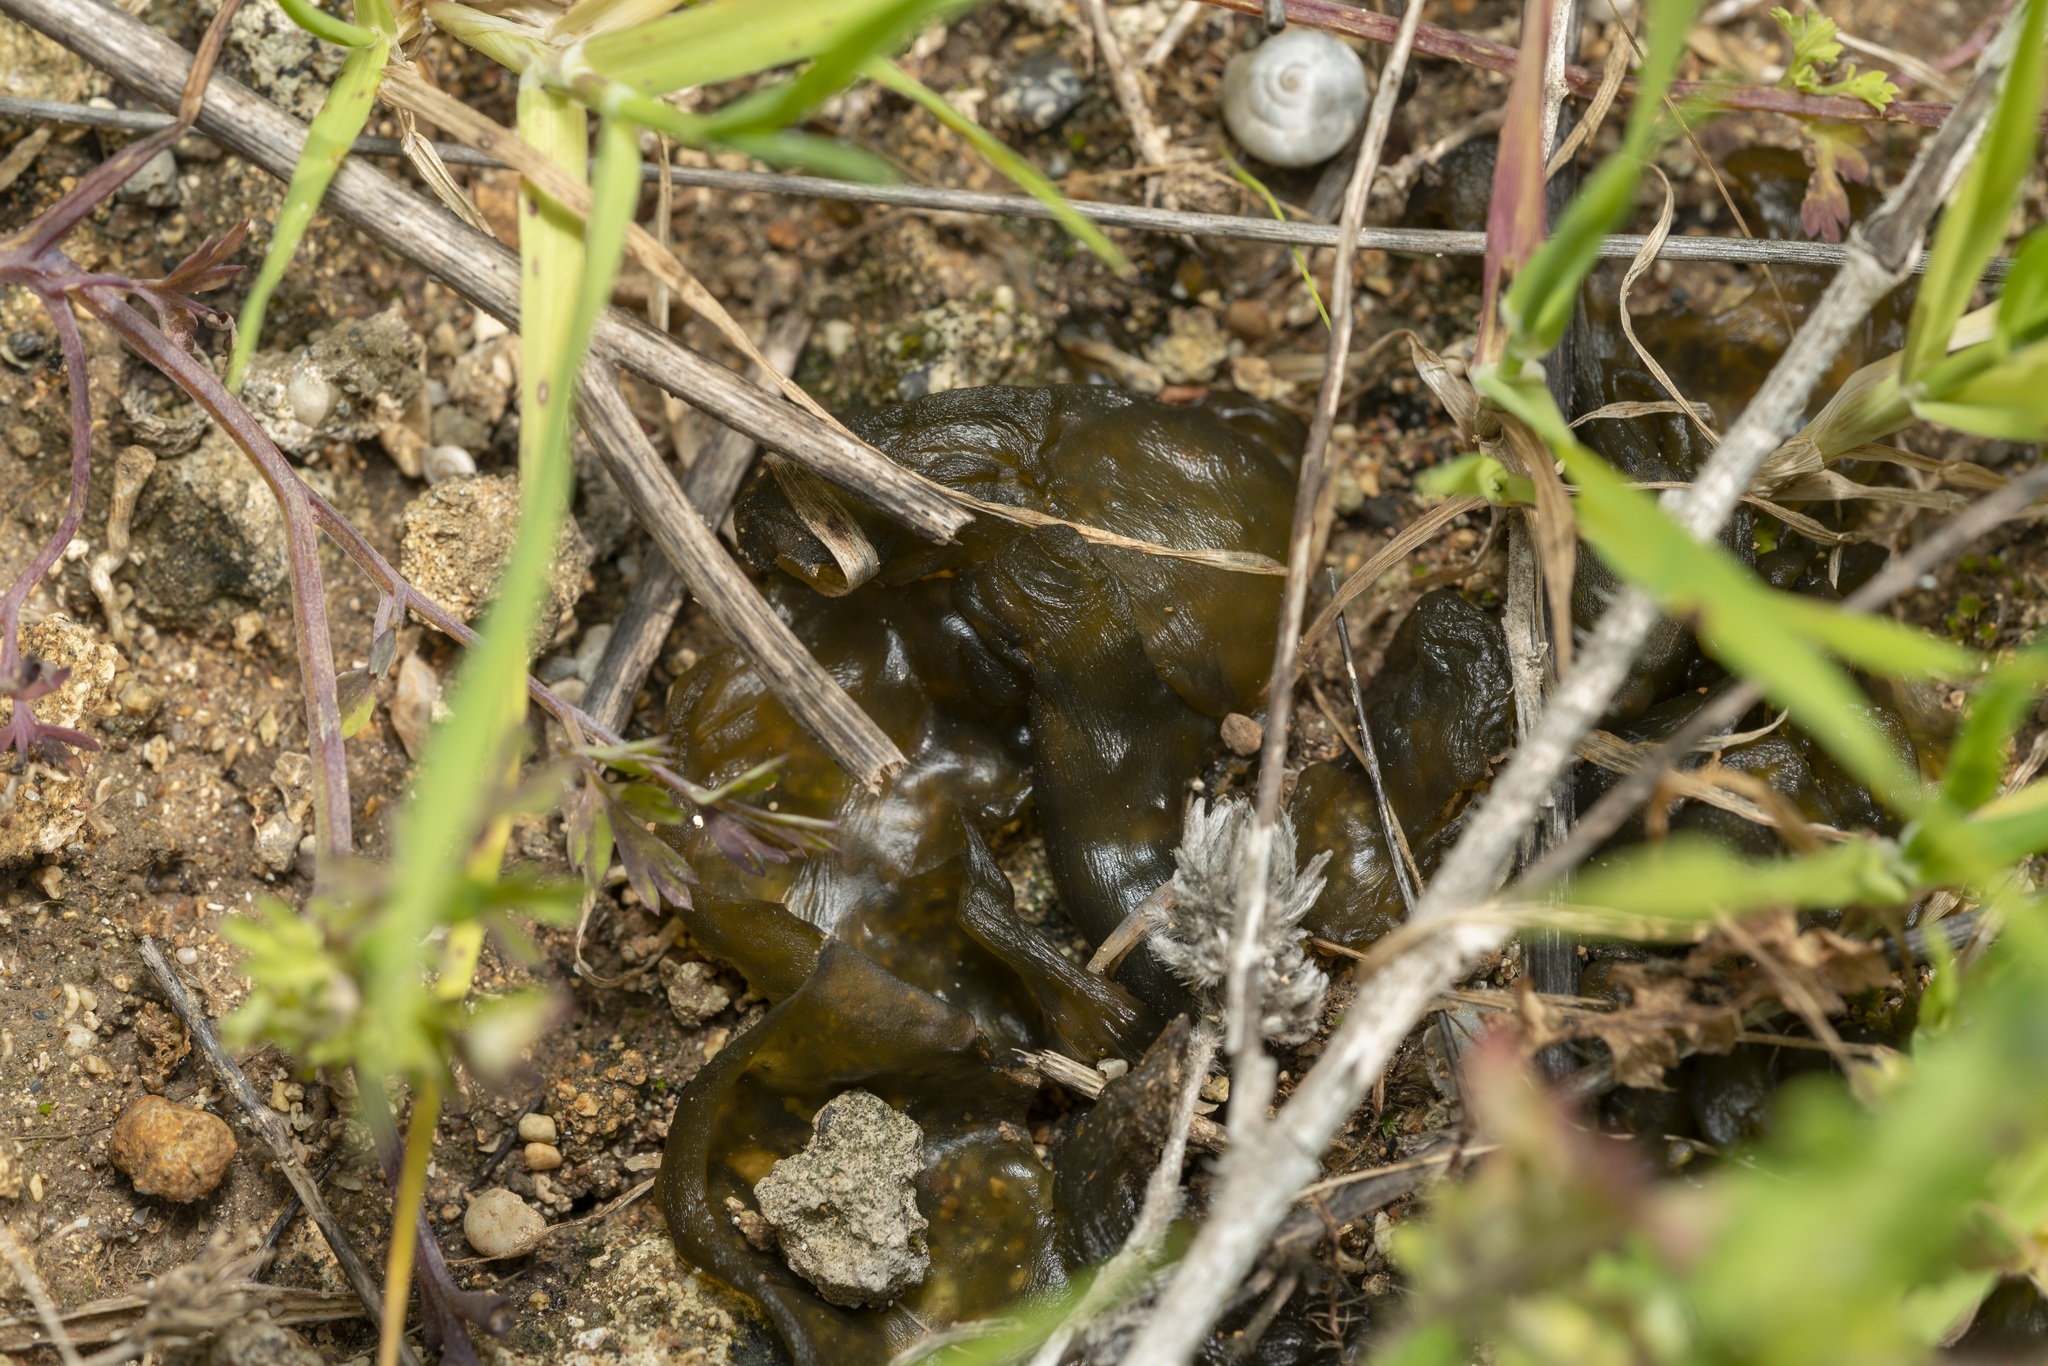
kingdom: Bacteria
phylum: Cyanobacteria
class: Cyanobacteriia
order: Cyanobacteriales
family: Nostocaceae
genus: Nostoc
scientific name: Nostoc commune
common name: Star jelly
